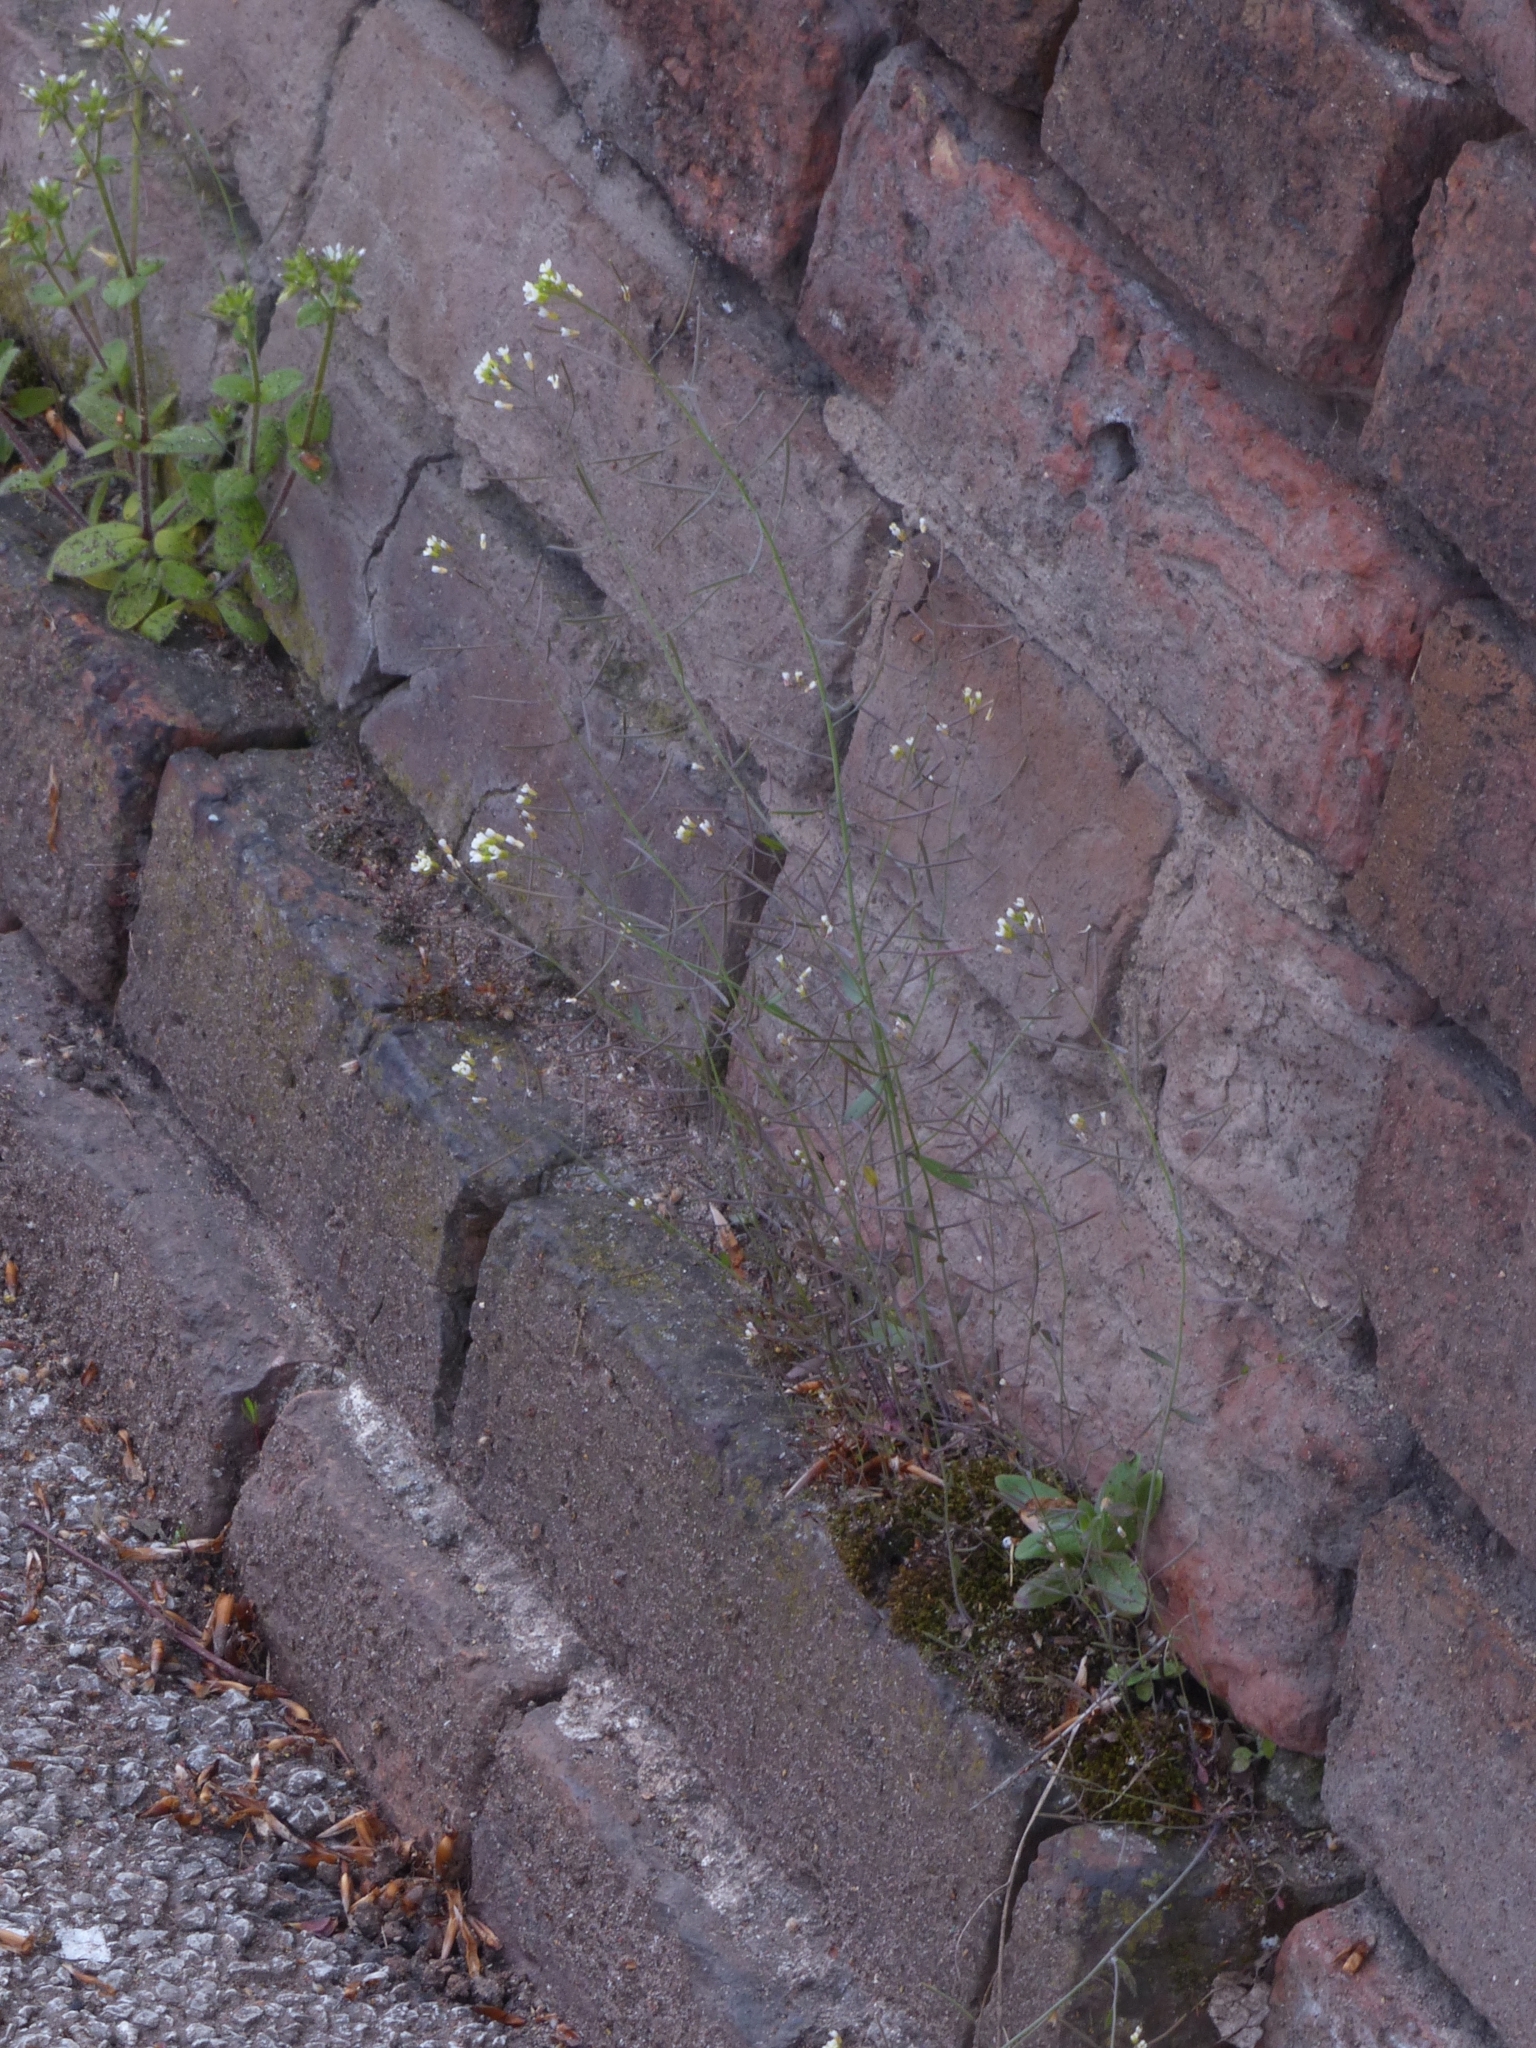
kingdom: Plantae
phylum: Tracheophyta
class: Magnoliopsida
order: Brassicales
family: Brassicaceae
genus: Arabidopsis
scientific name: Arabidopsis thaliana
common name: Thale cress
